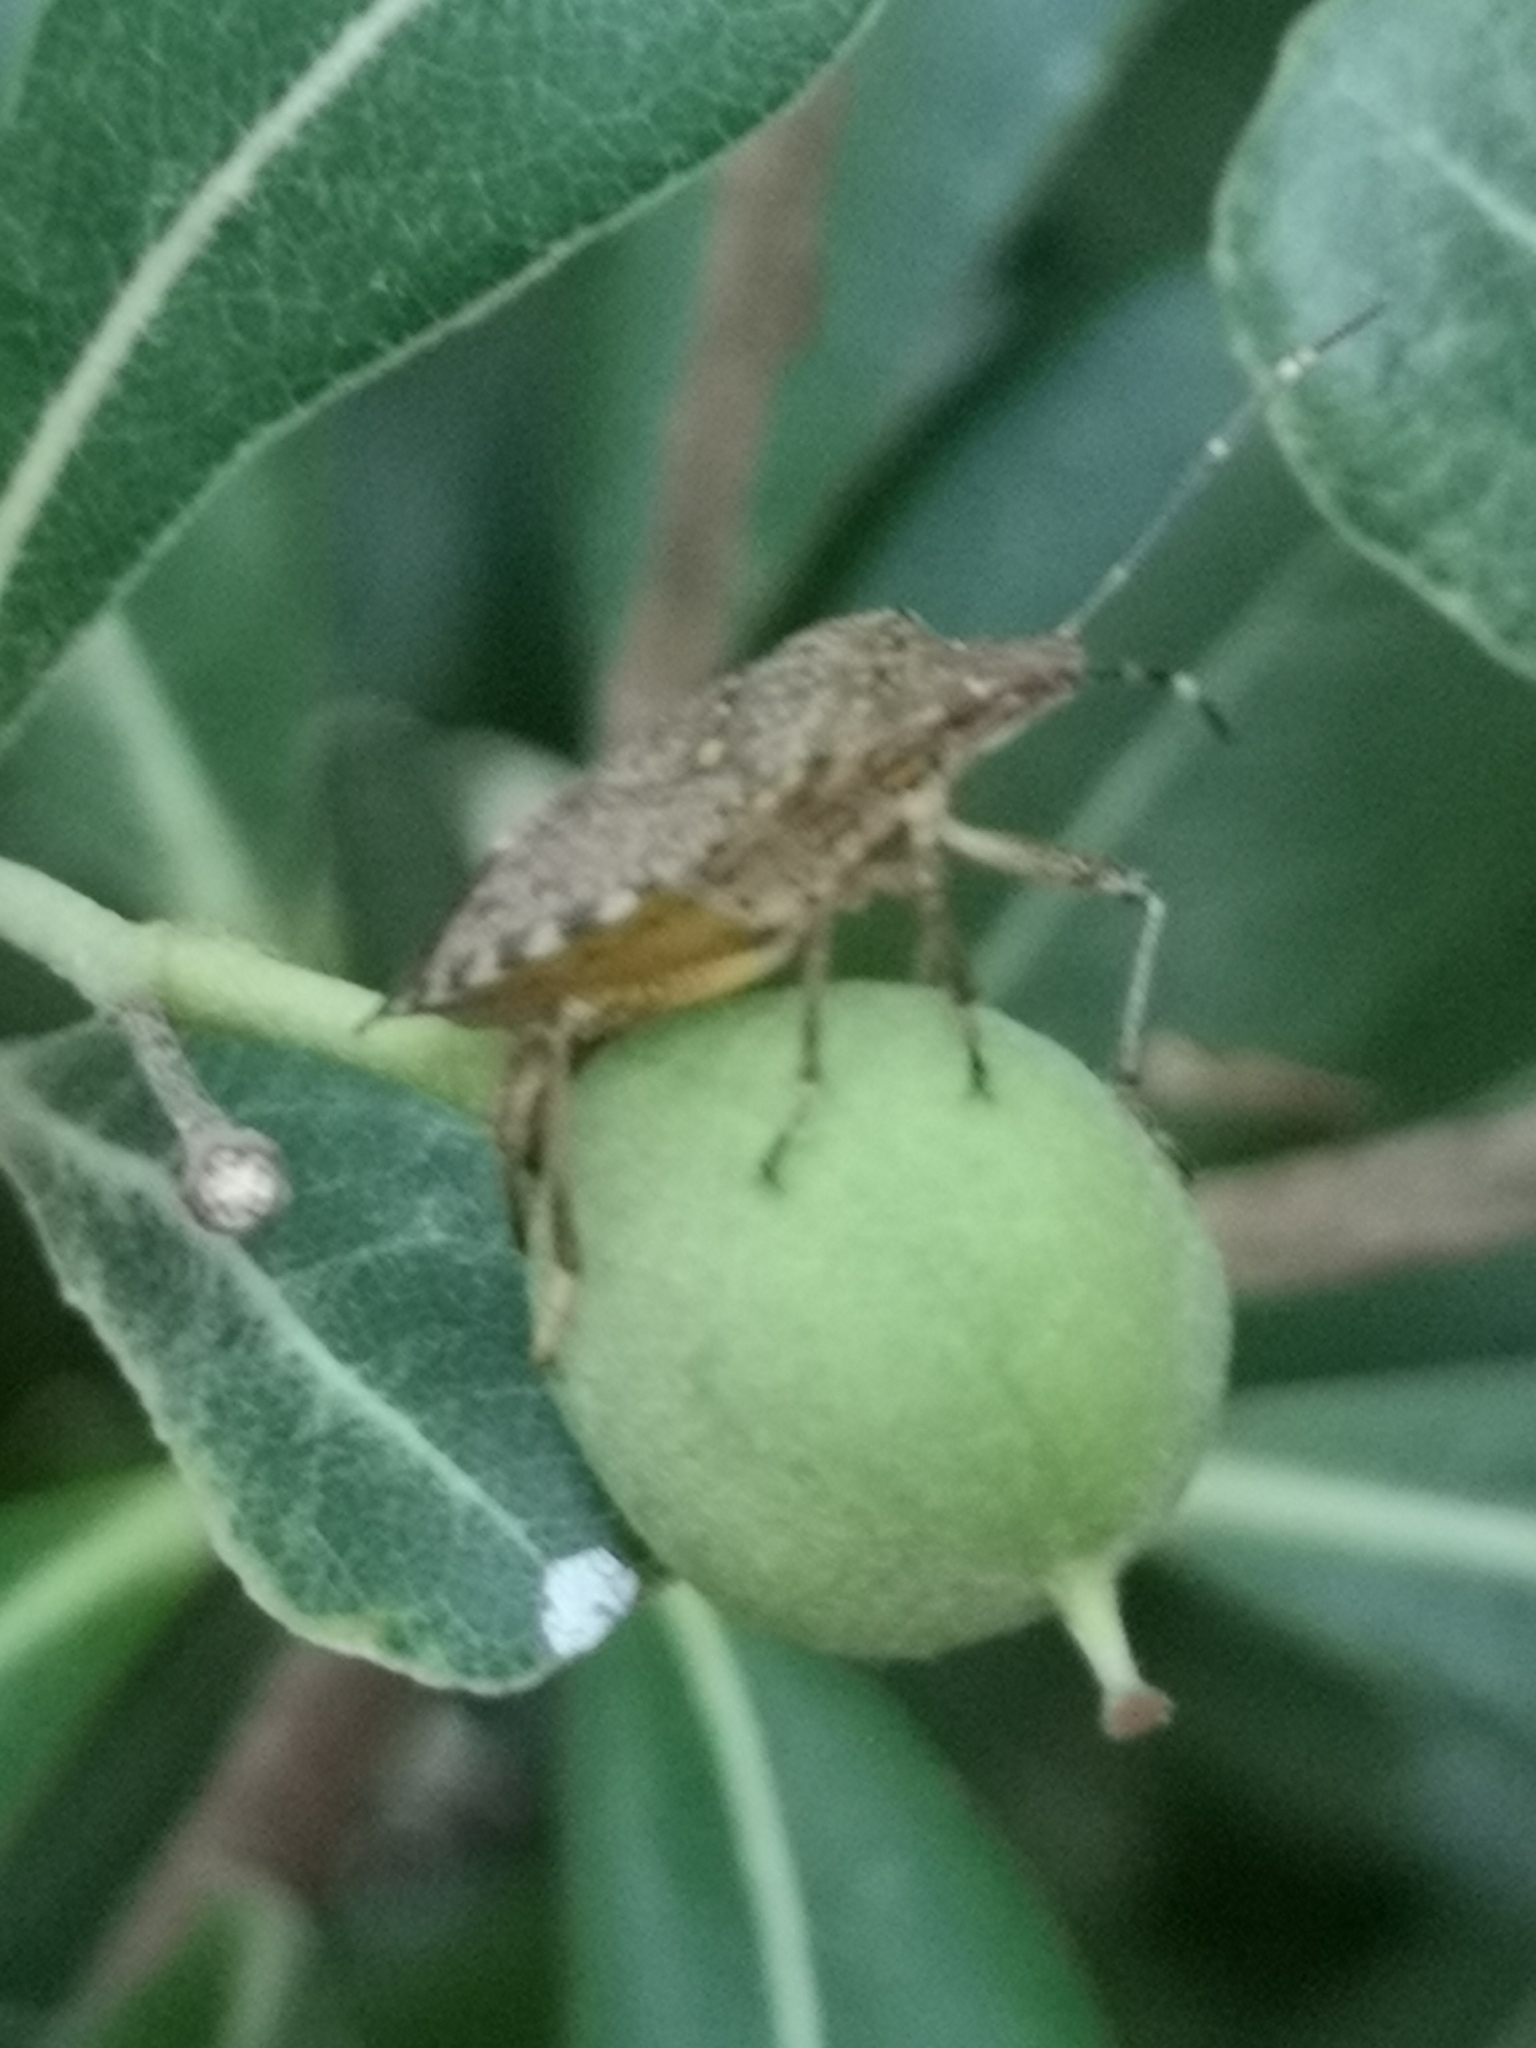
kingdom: Animalia
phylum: Arthropoda
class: Insecta
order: Hemiptera
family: Pentatomidae
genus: Halyomorpha
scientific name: Halyomorpha halys
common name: Brown marmorated stink bug
